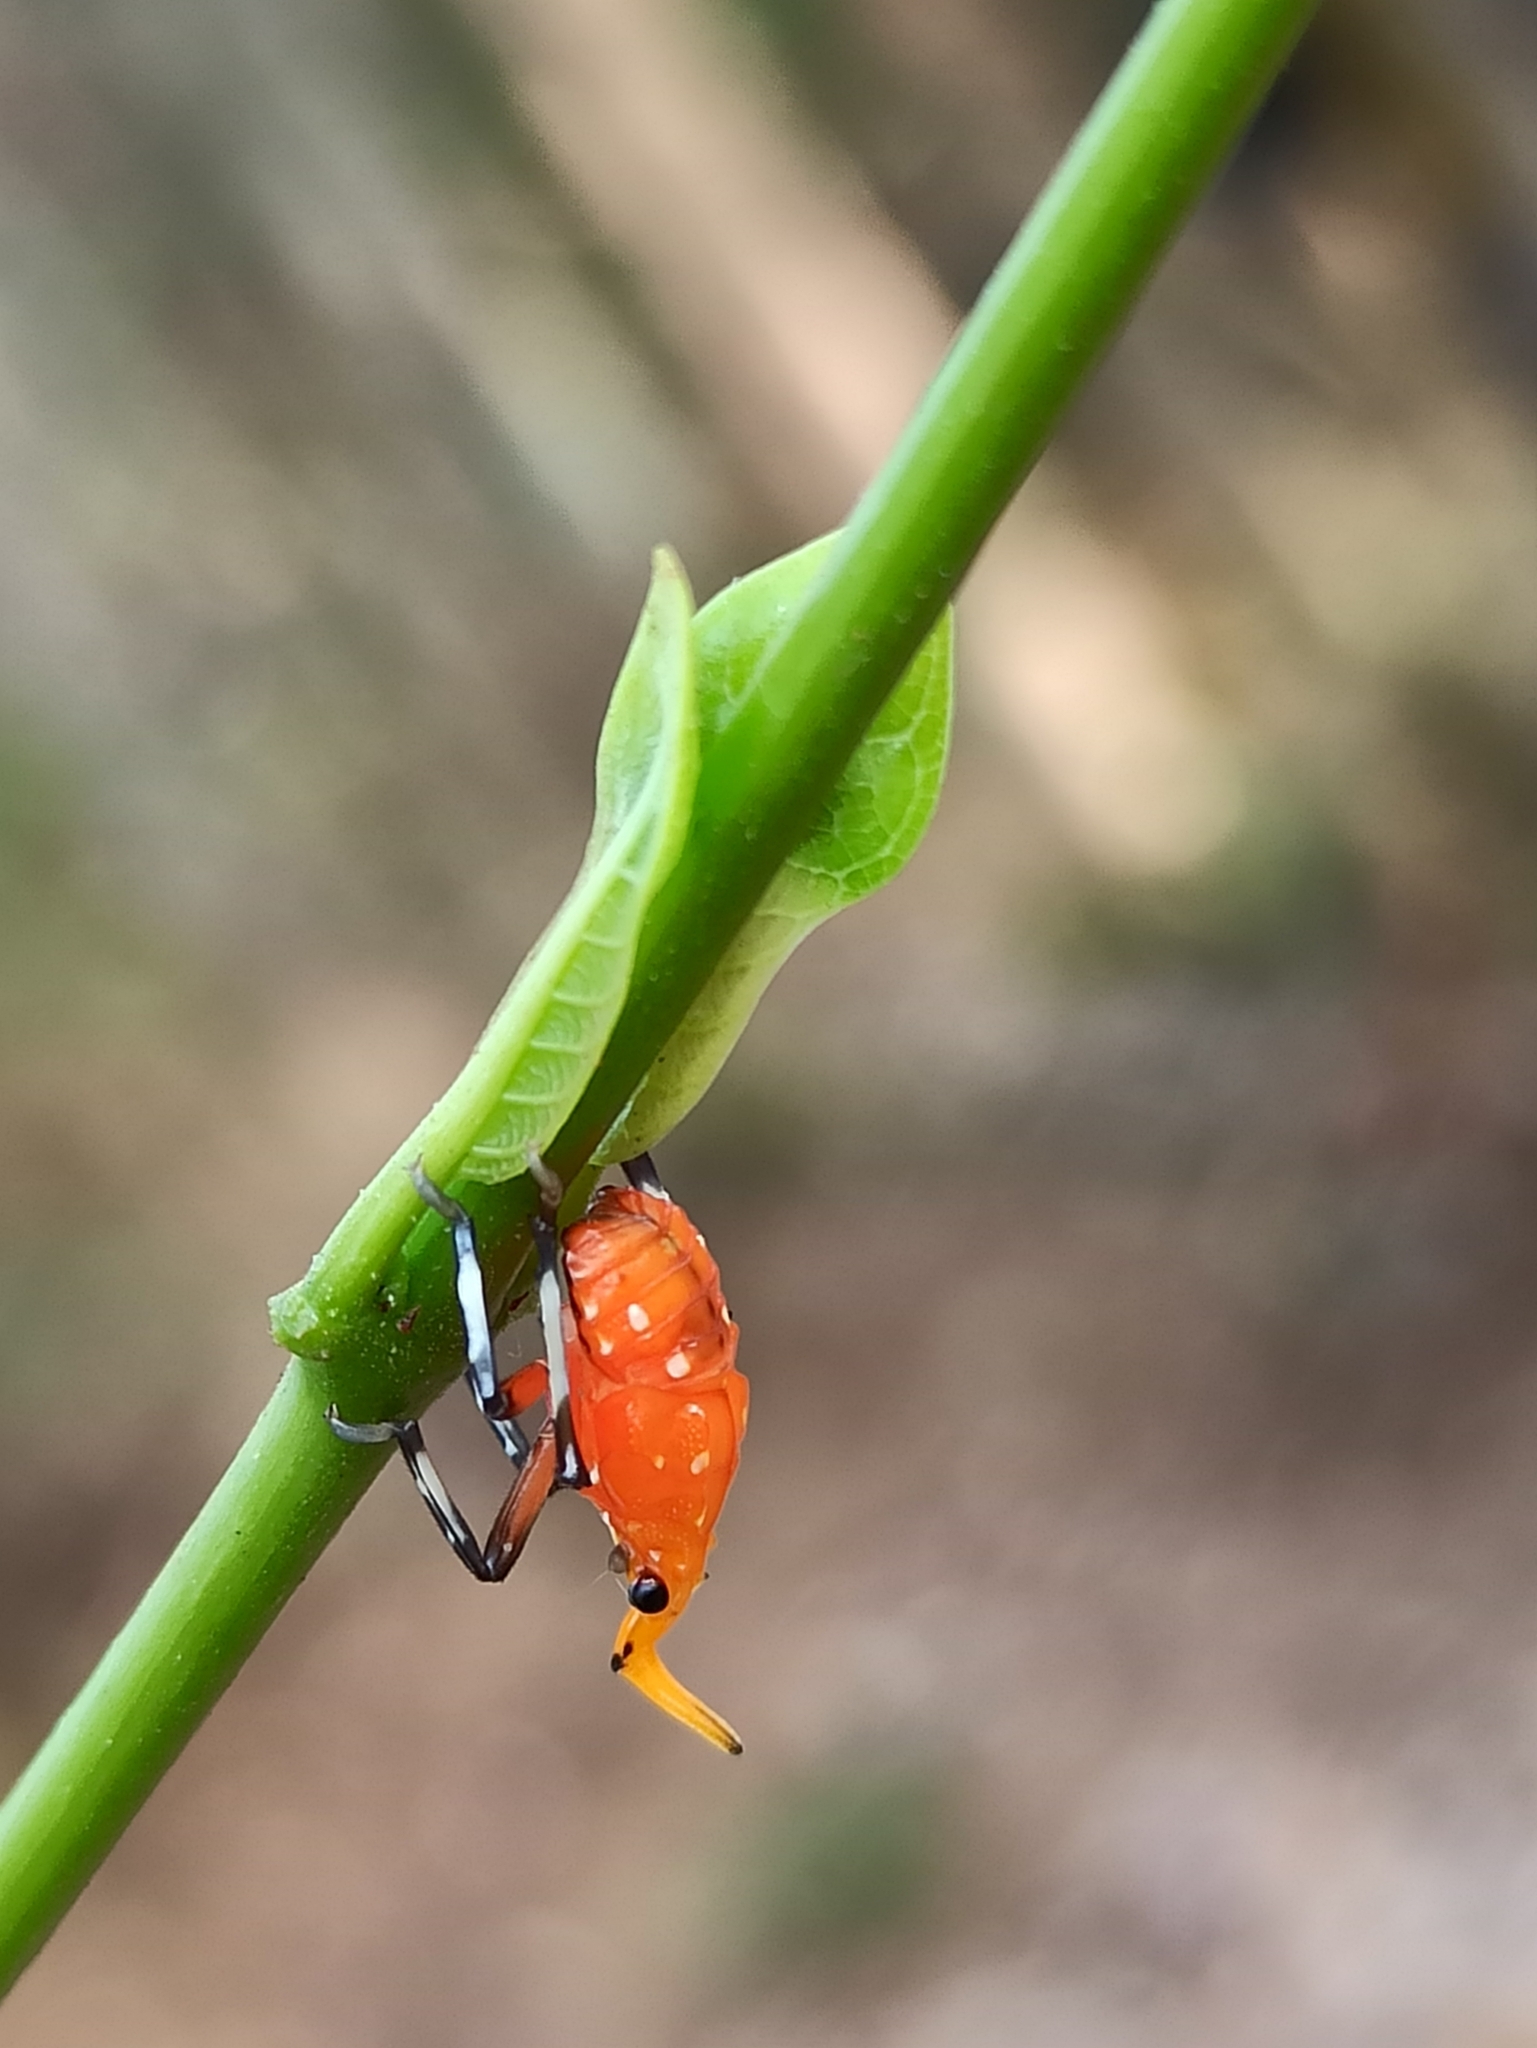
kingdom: Animalia
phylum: Arthropoda
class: Insecta
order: Hemiptera
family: Fulgoridae
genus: Kalidasa
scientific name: Kalidasa lanata
